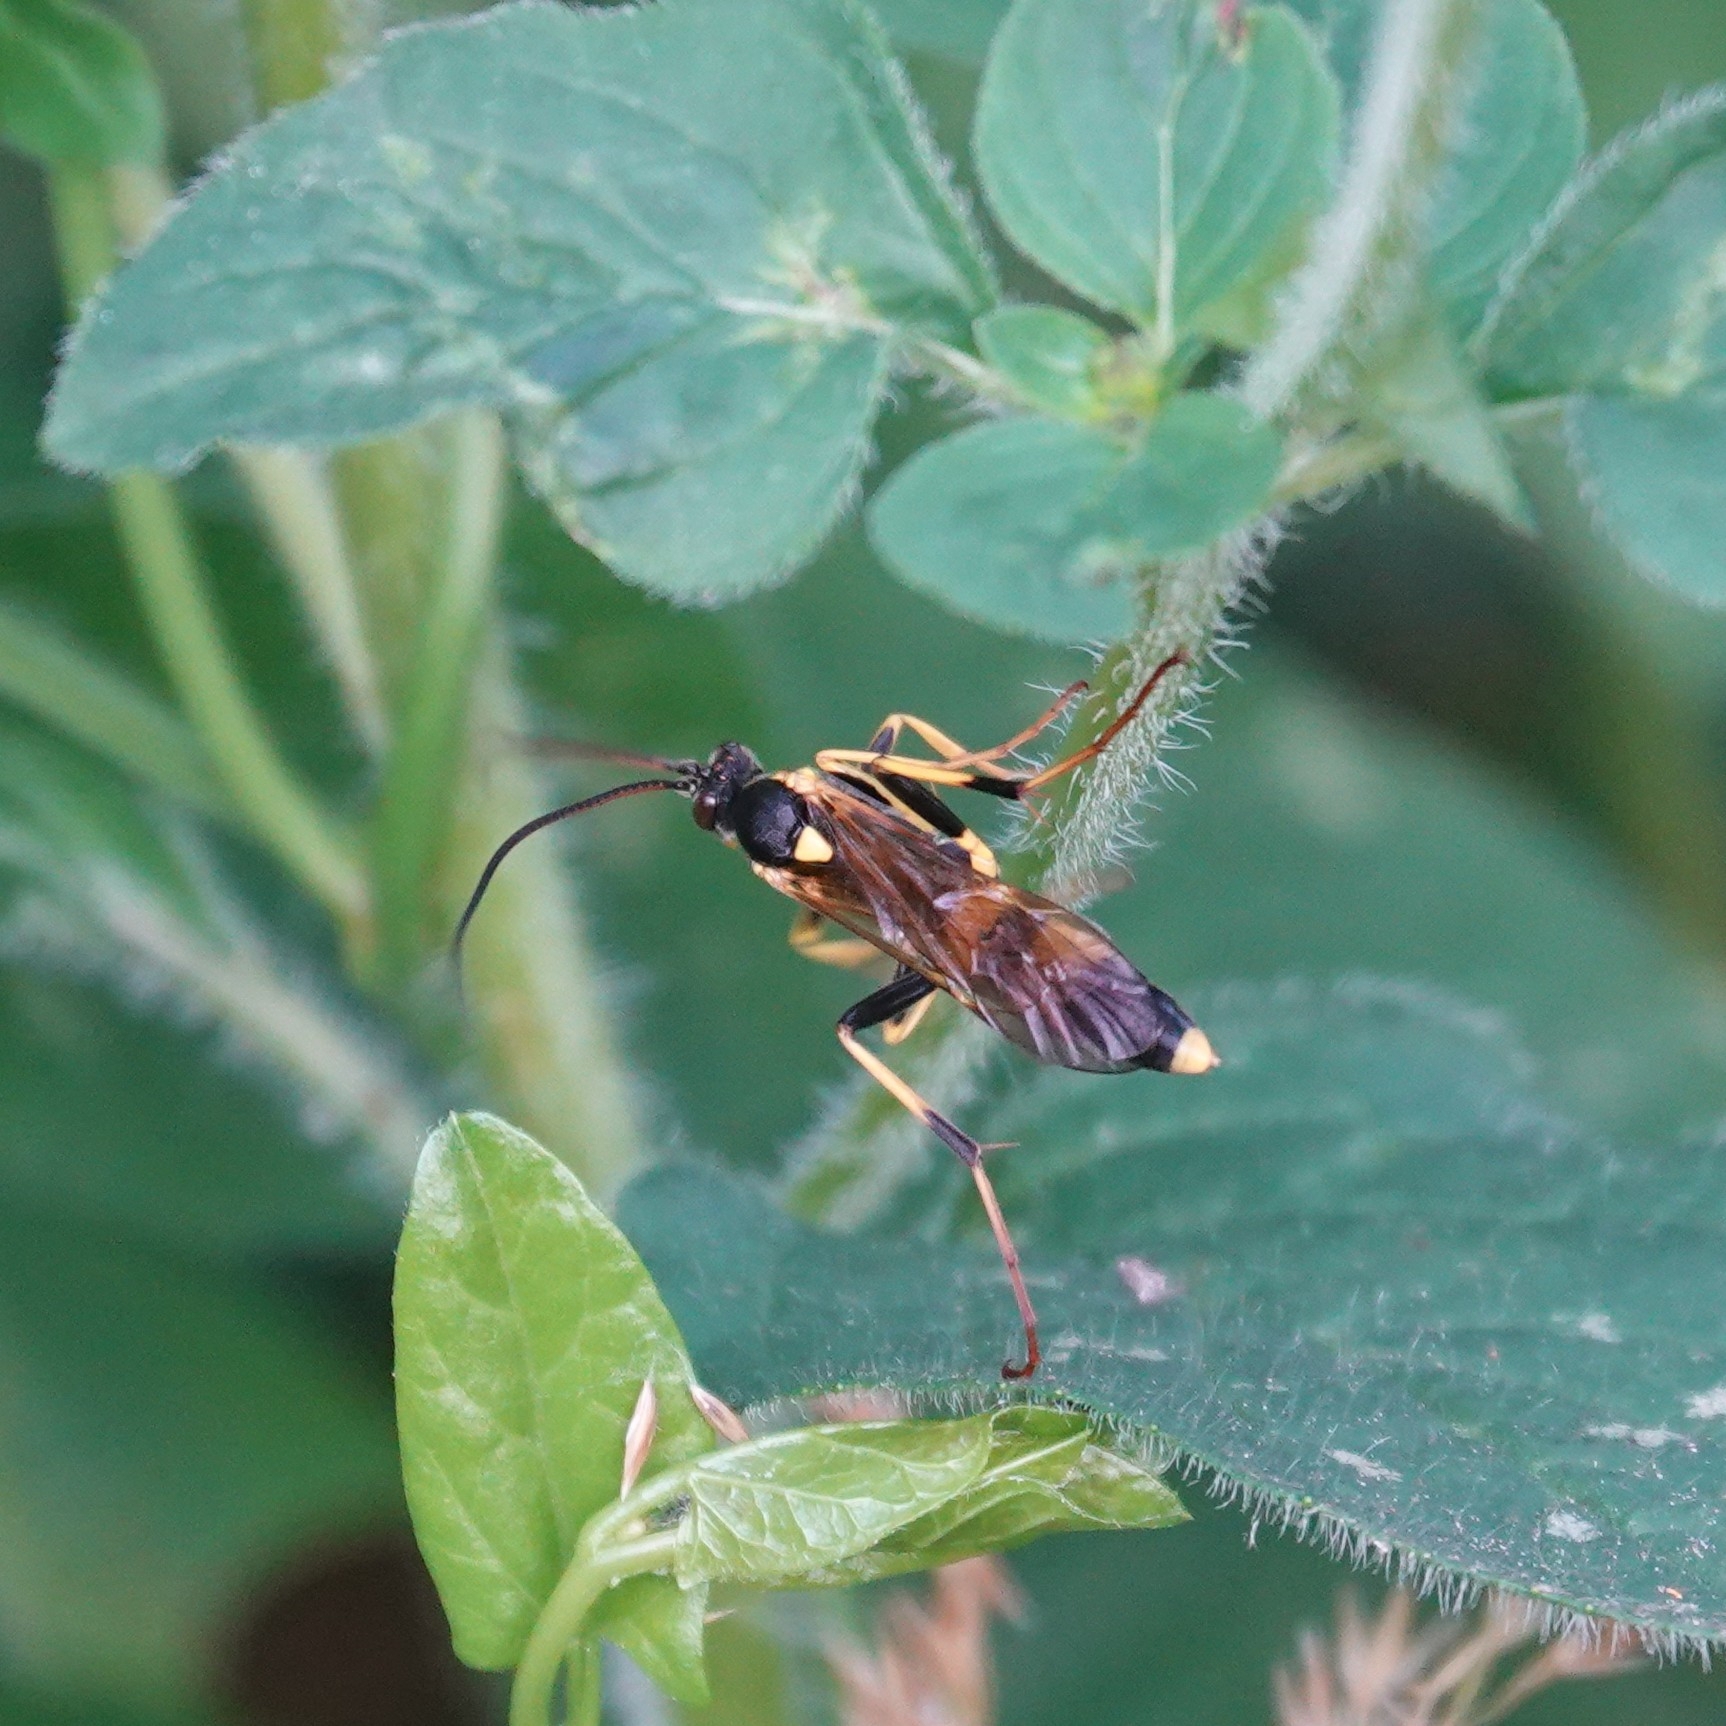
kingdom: Animalia
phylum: Arthropoda
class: Insecta
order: Hymenoptera
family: Ichneumonidae
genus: Amblyteles
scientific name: Amblyteles armatorius
